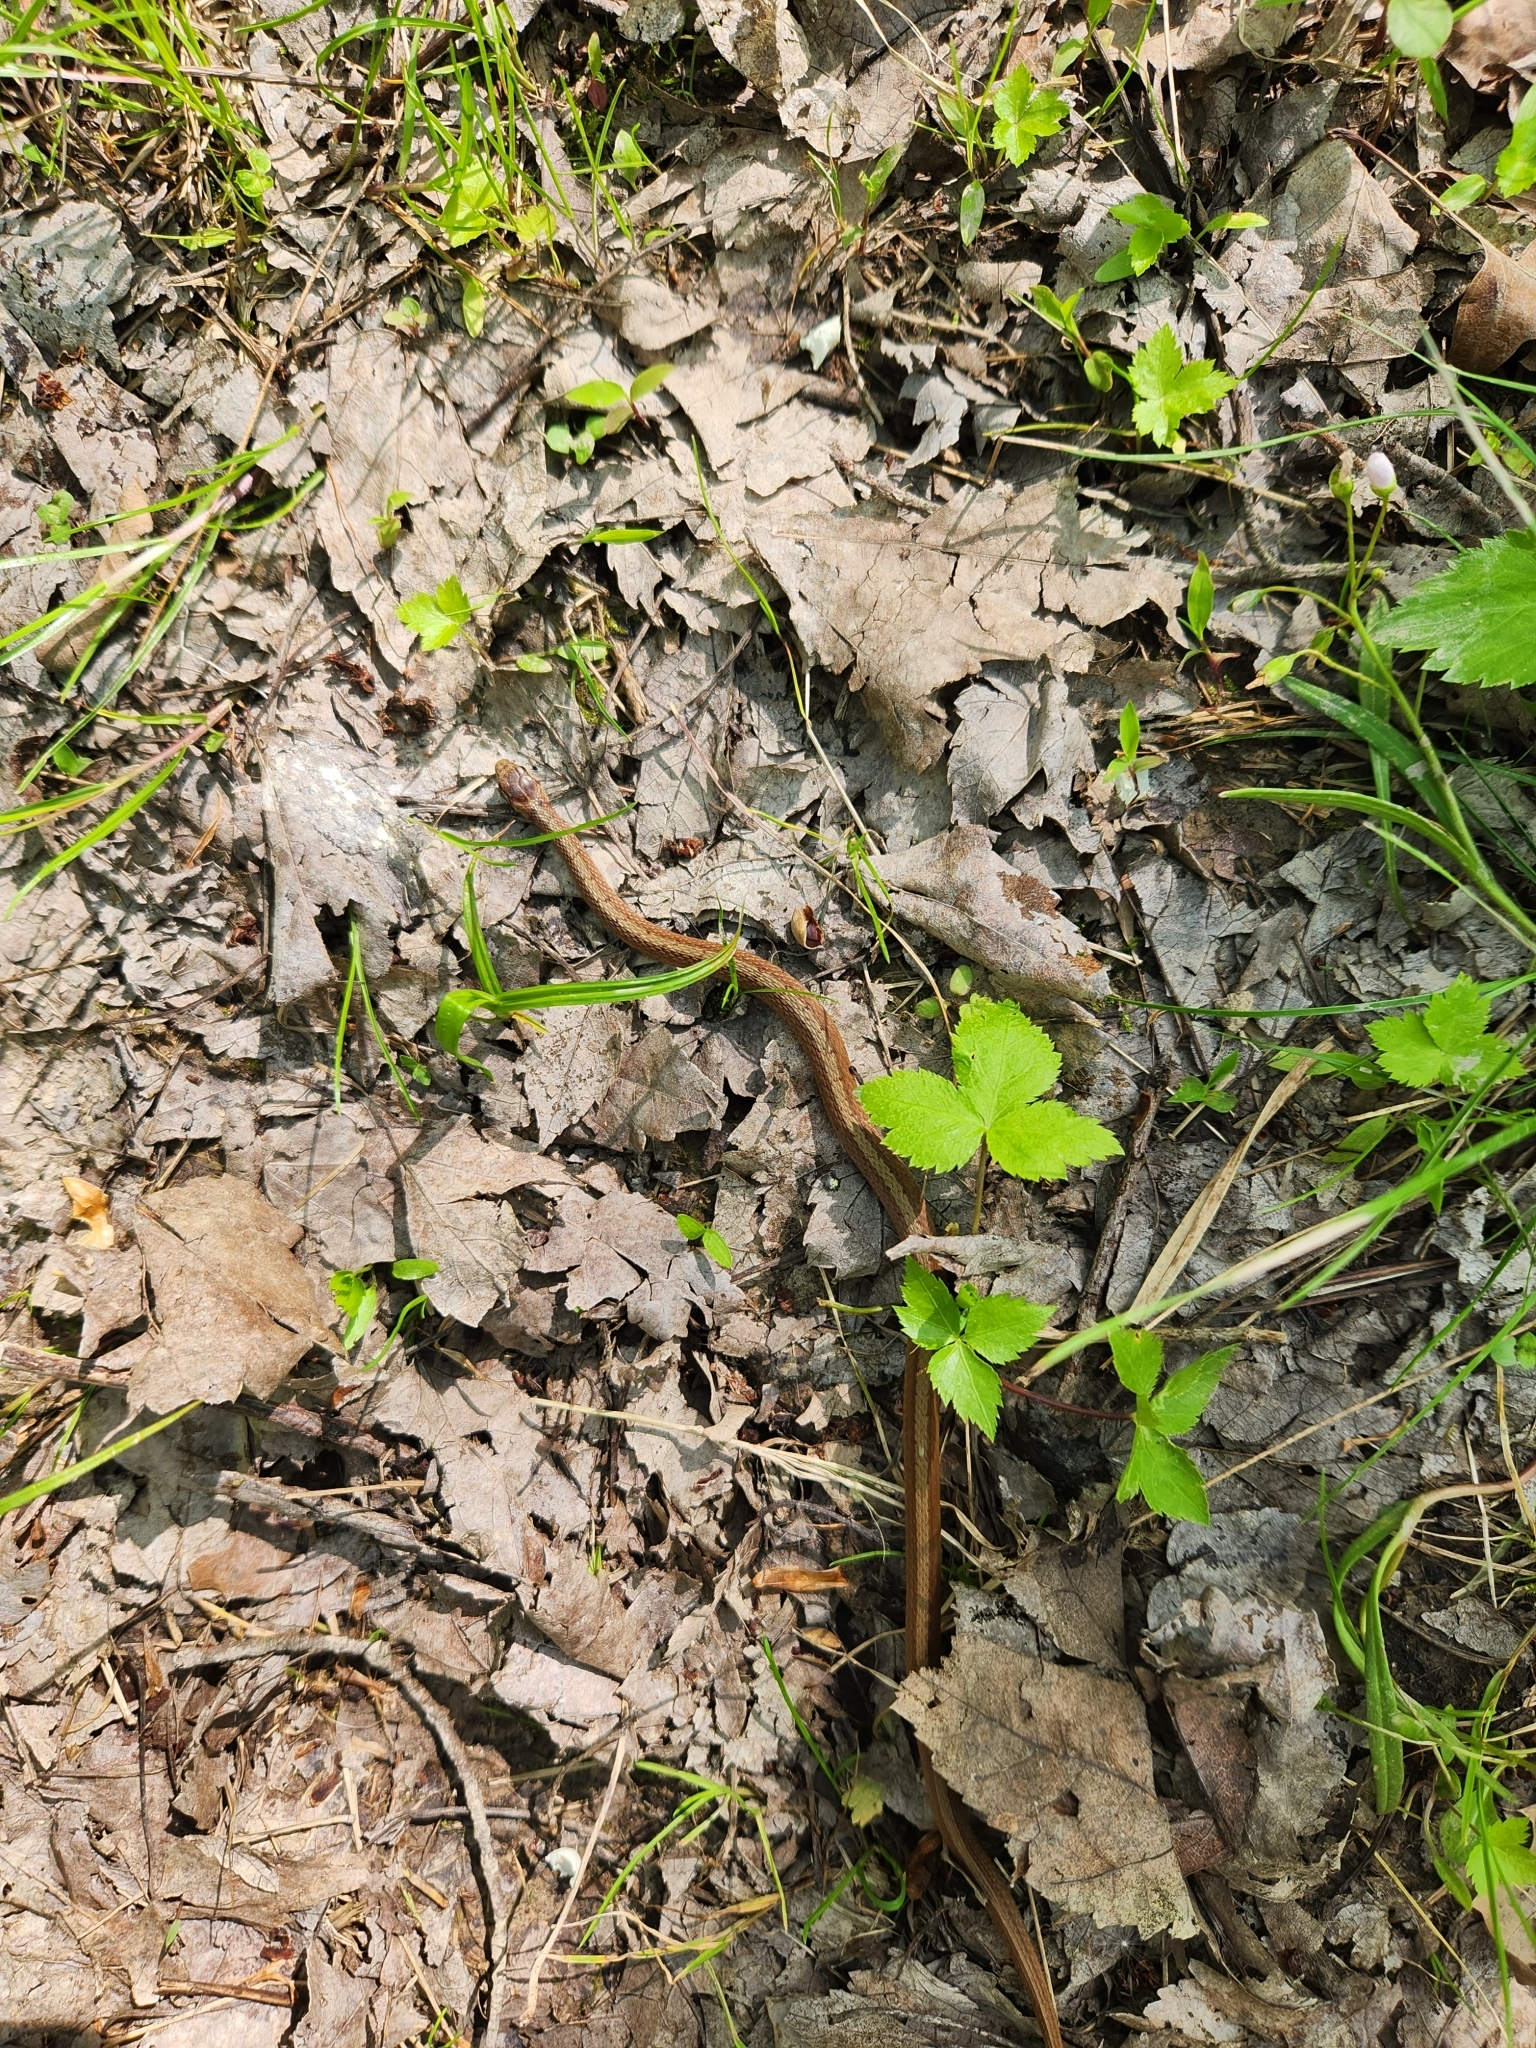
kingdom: Animalia
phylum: Chordata
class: Squamata
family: Colubridae
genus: Storeria
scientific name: Storeria dekayi
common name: (dekay’s) brown snake
